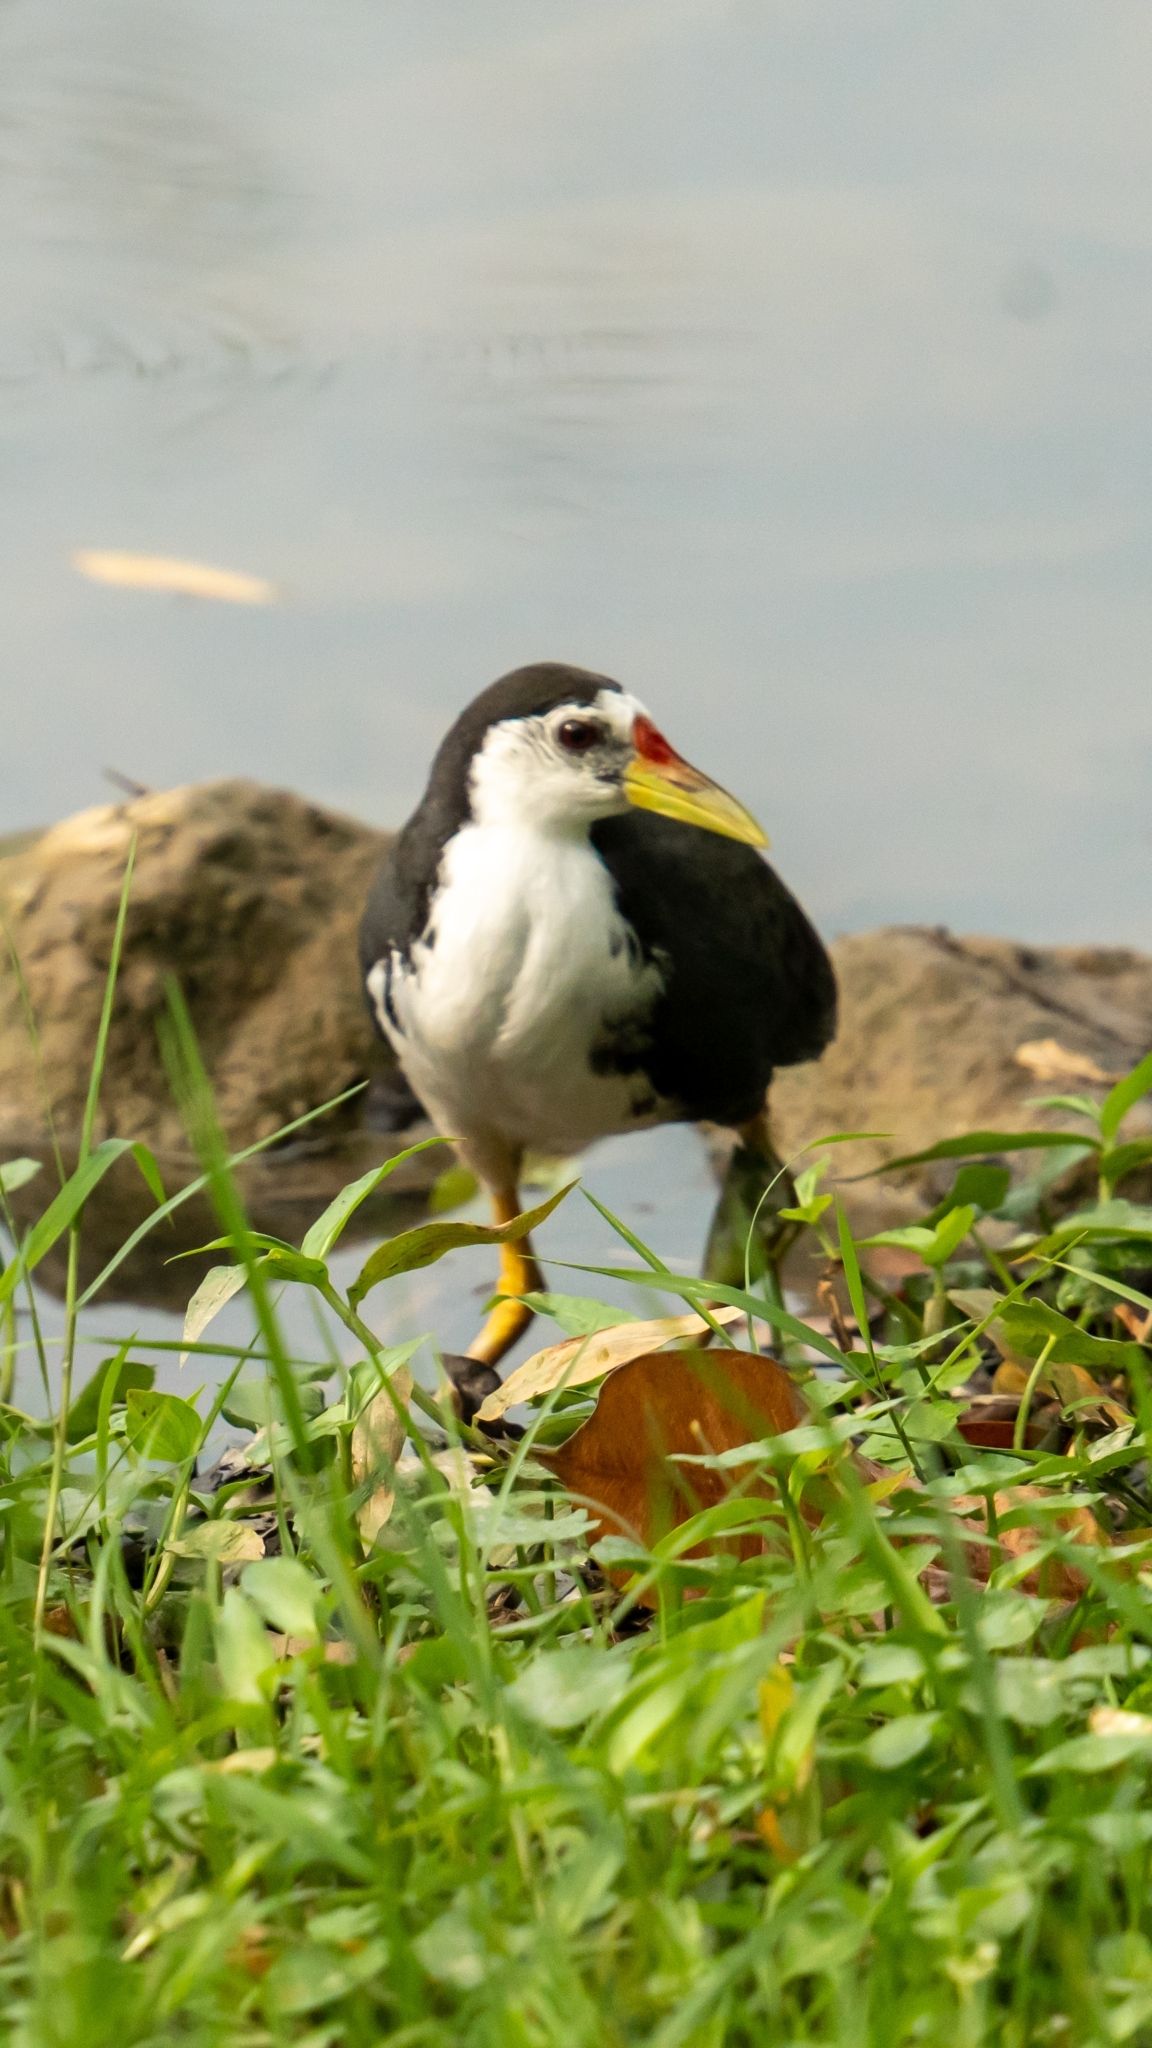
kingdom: Animalia
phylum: Chordata
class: Aves
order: Gruiformes
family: Rallidae
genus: Amaurornis
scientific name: Amaurornis phoenicurus
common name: White-breasted waterhen
